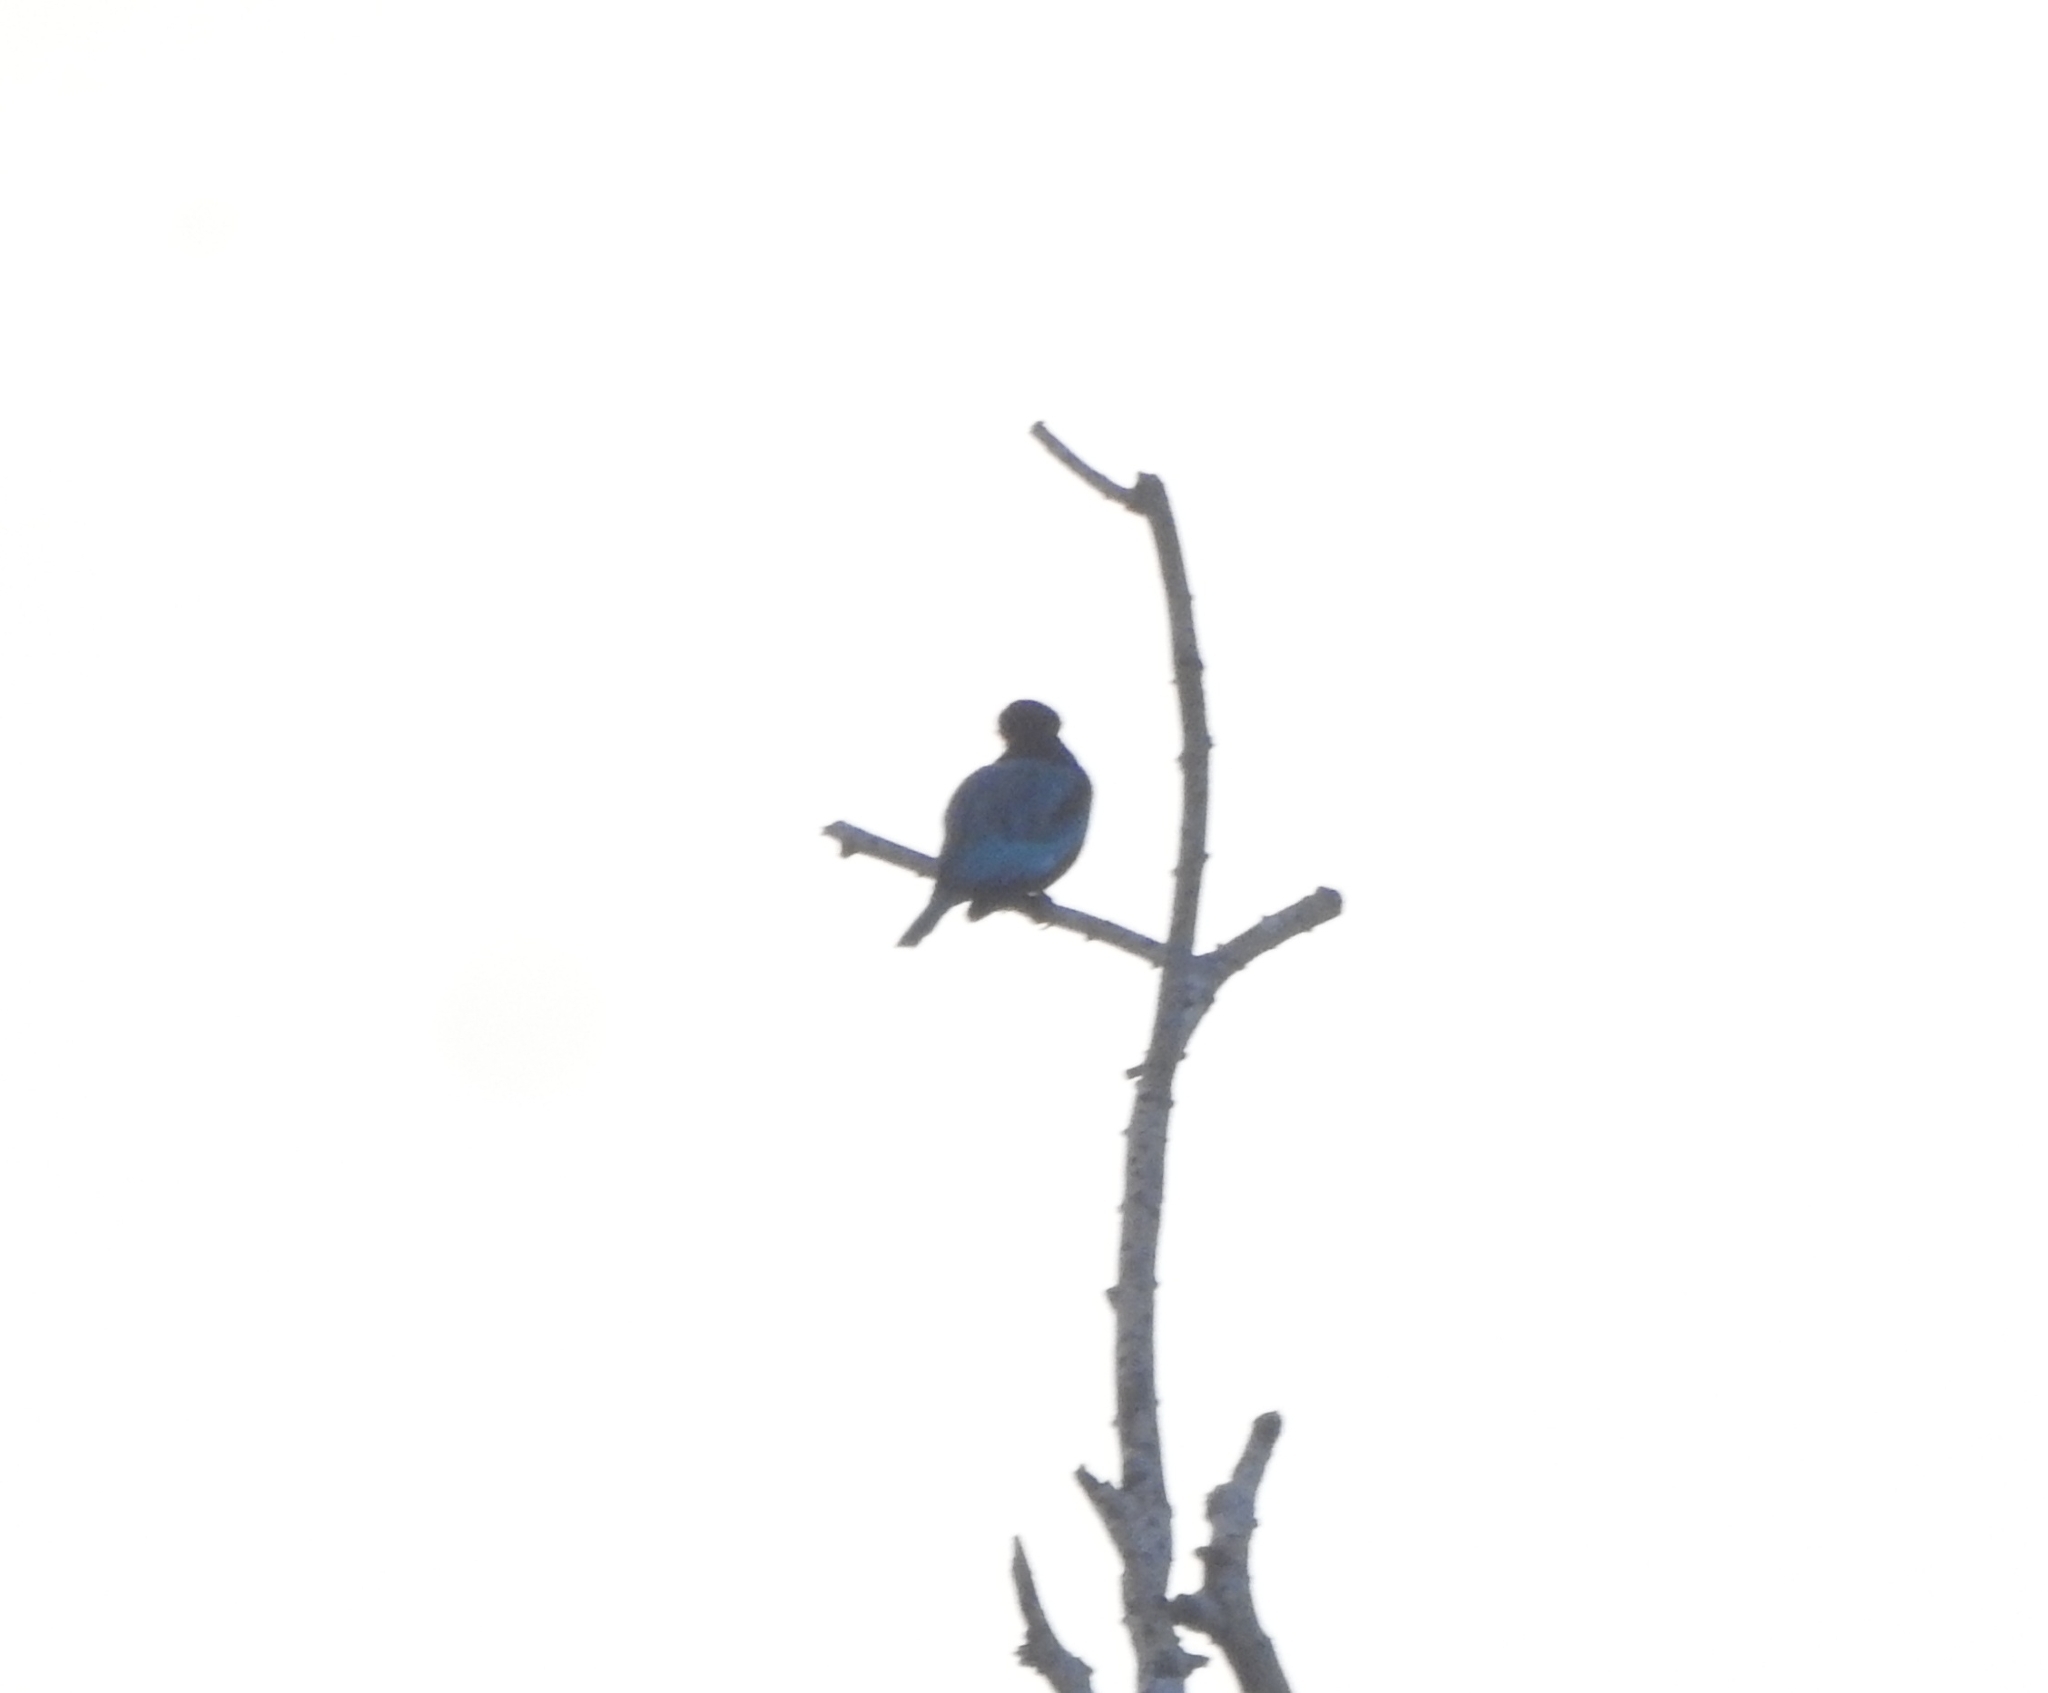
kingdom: Animalia
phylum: Chordata
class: Aves
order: Coraciiformes
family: Alcedinidae
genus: Halcyon
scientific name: Halcyon smyrnensis
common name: White-throated kingfisher
